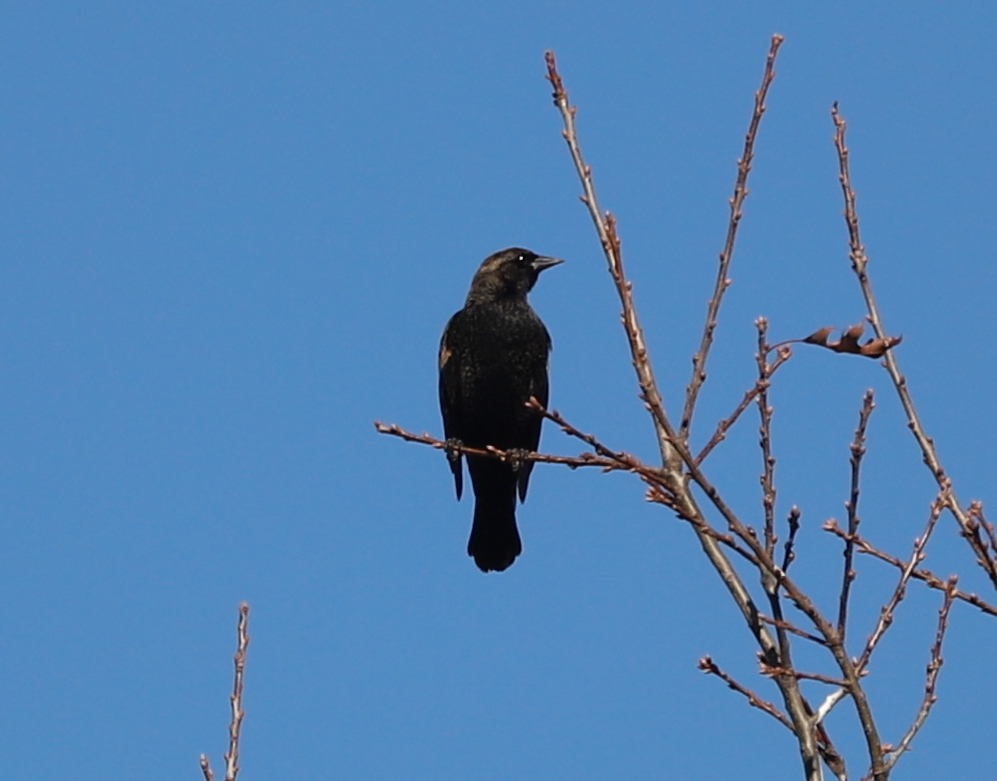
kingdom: Animalia
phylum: Chordata
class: Aves
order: Passeriformes
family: Icteridae
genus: Agelaius
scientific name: Agelaius phoeniceus
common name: Red-winged blackbird
